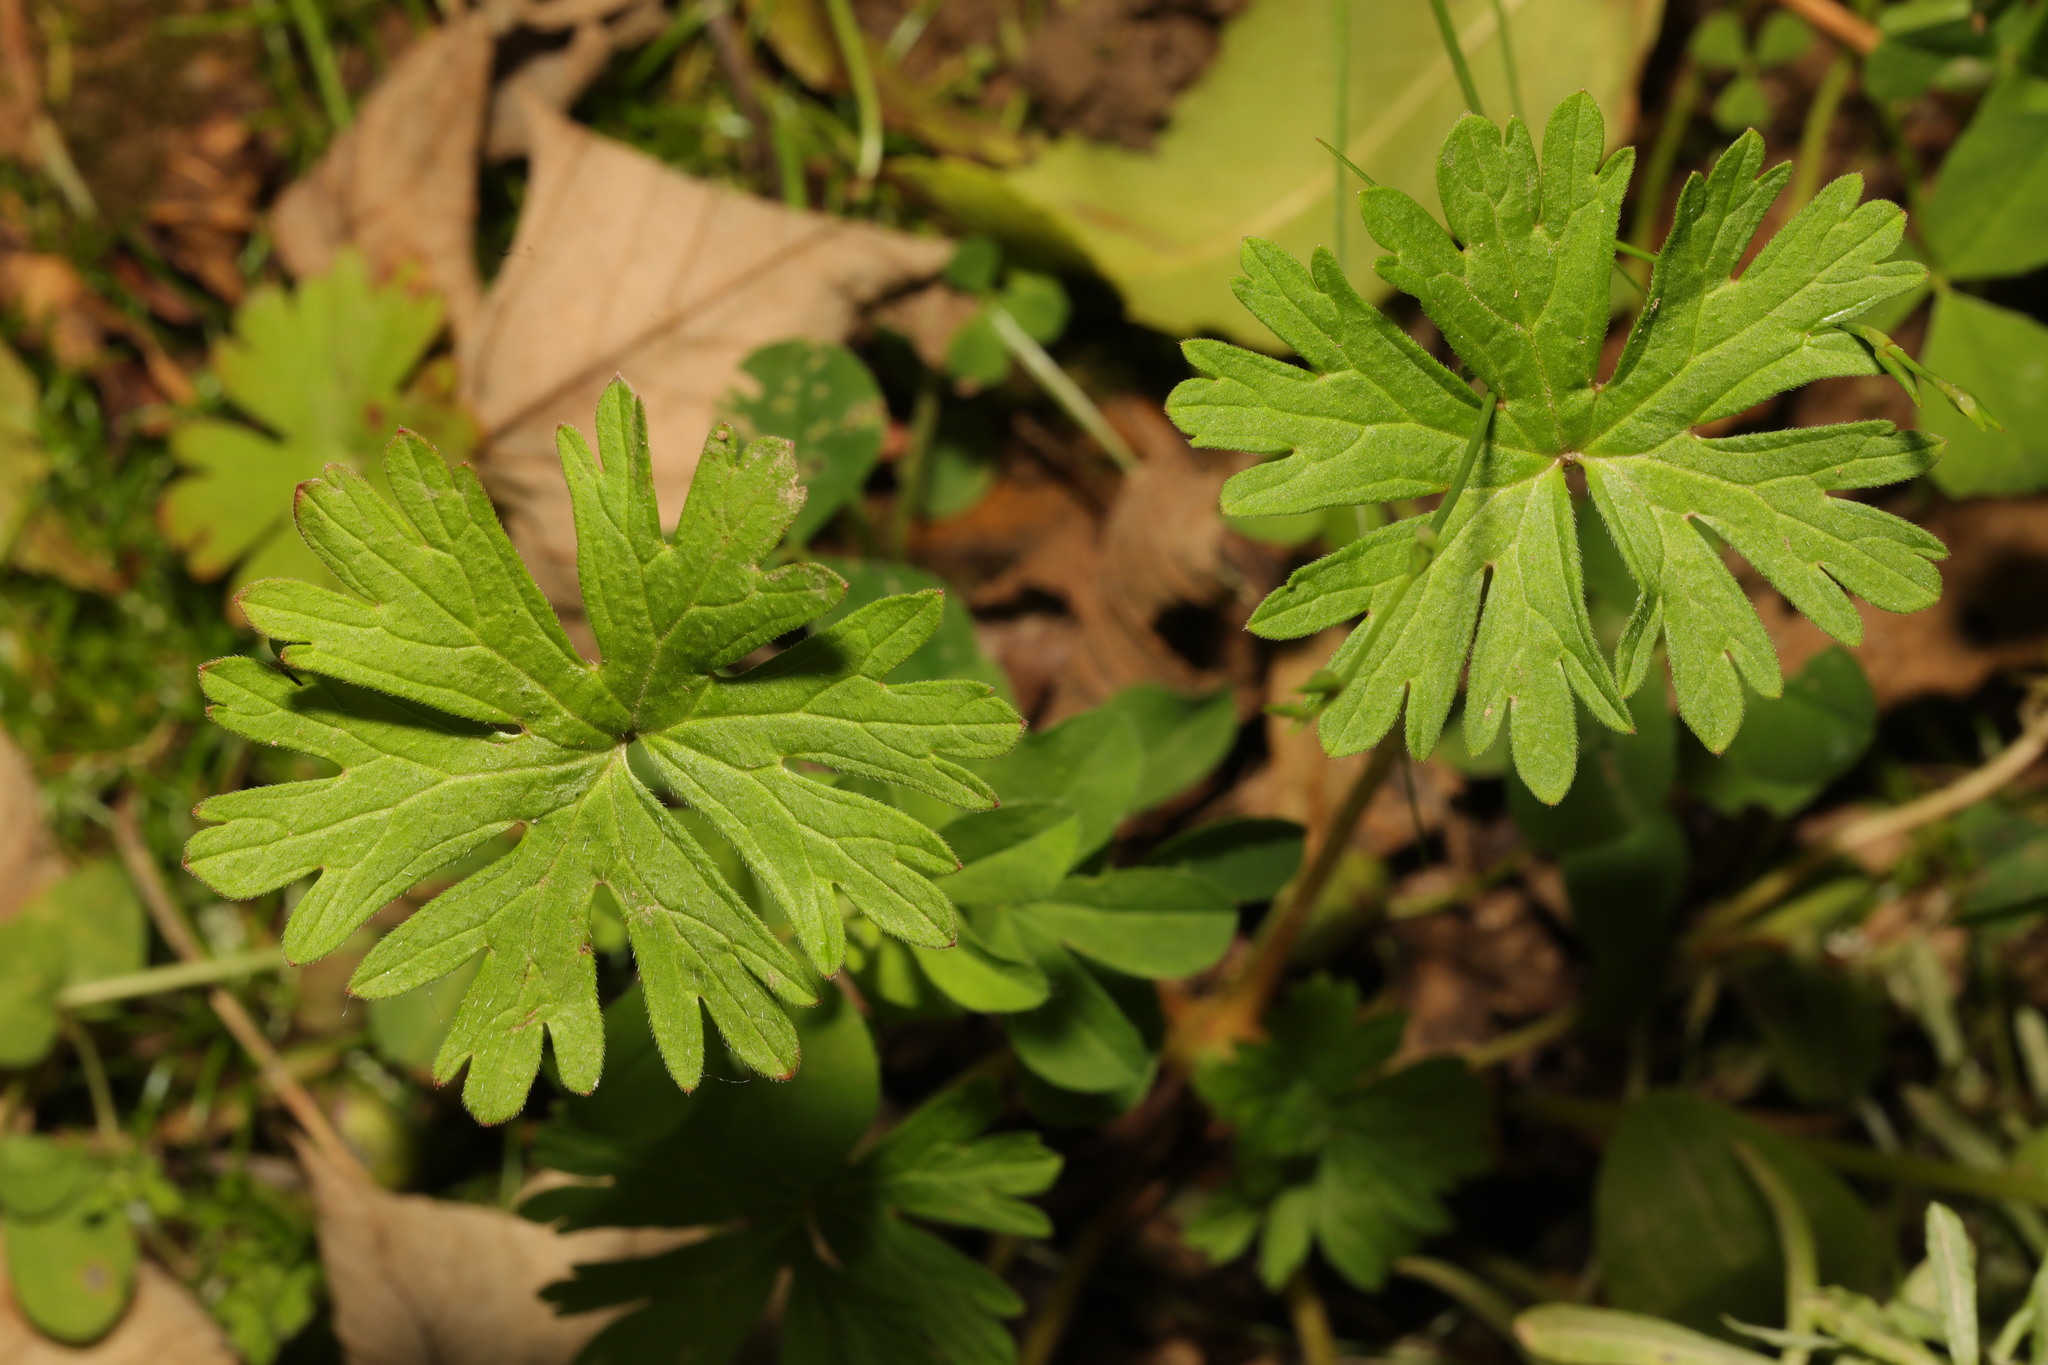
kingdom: Plantae
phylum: Tracheophyta
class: Magnoliopsida
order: Geraniales
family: Geraniaceae
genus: Geranium
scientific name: Geranium molle
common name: Dove's-foot crane's-bill
